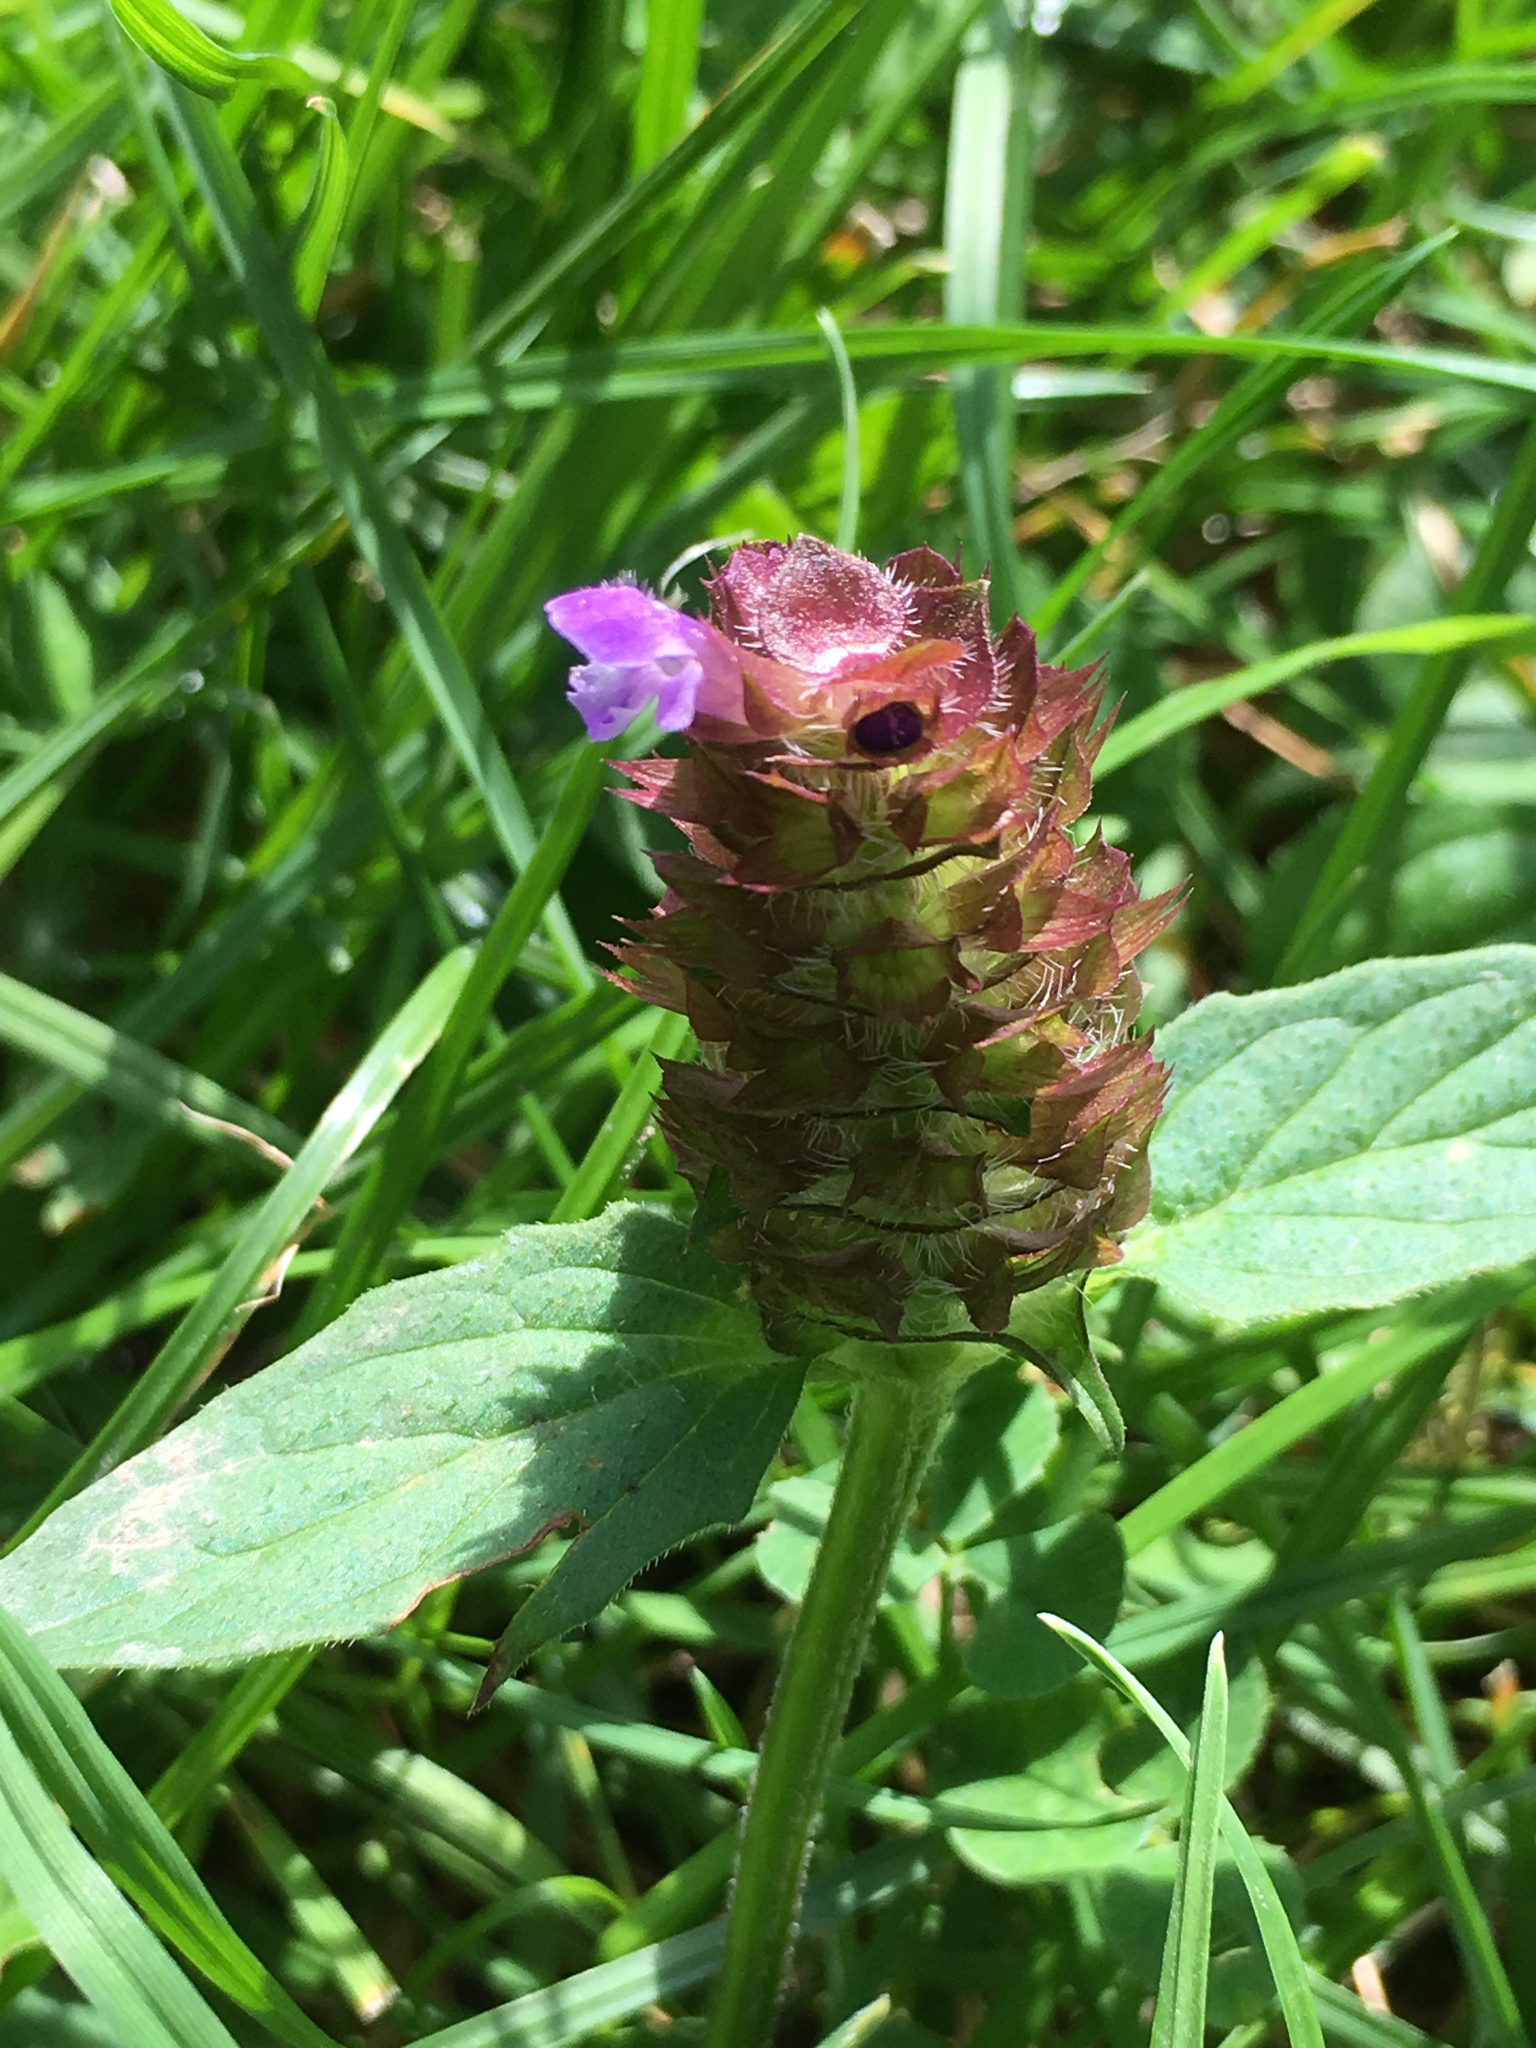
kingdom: Plantae
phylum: Tracheophyta
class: Magnoliopsida
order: Lamiales
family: Lamiaceae
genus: Prunella
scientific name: Prunella vulgaris
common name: Heal-all
